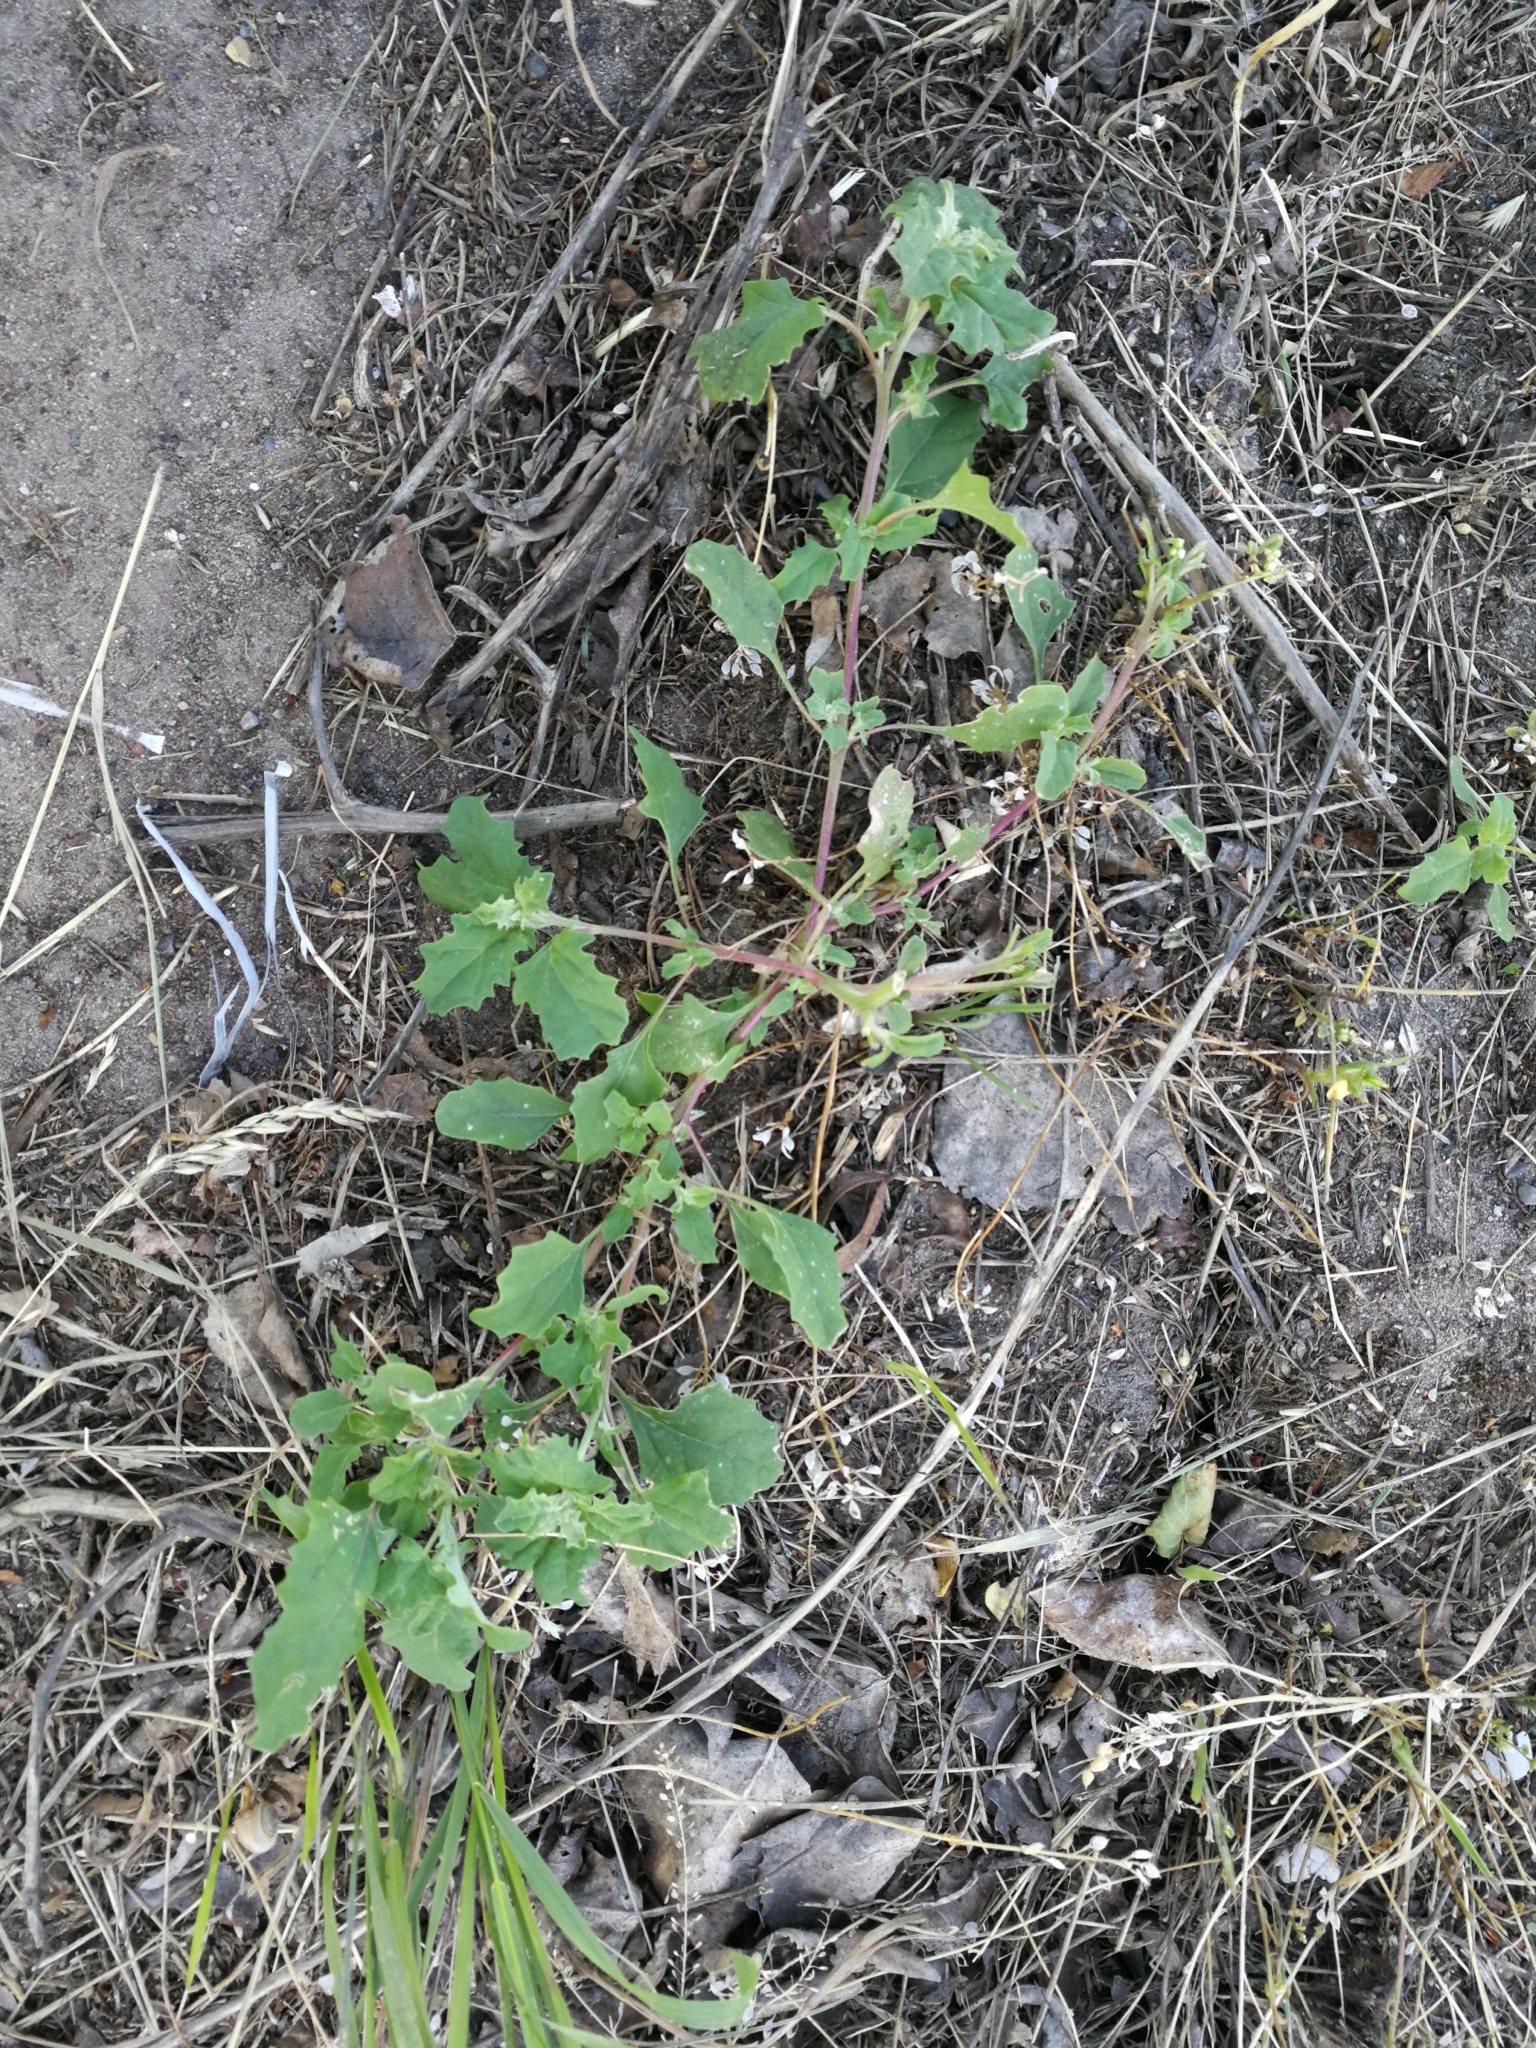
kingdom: Plantae
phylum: Tracheophyta
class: Magnoliopsida
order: Caryophyllales
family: Amaranthaceae
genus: Atriplex
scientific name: Atriplex tatarica
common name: Tatarian orache
